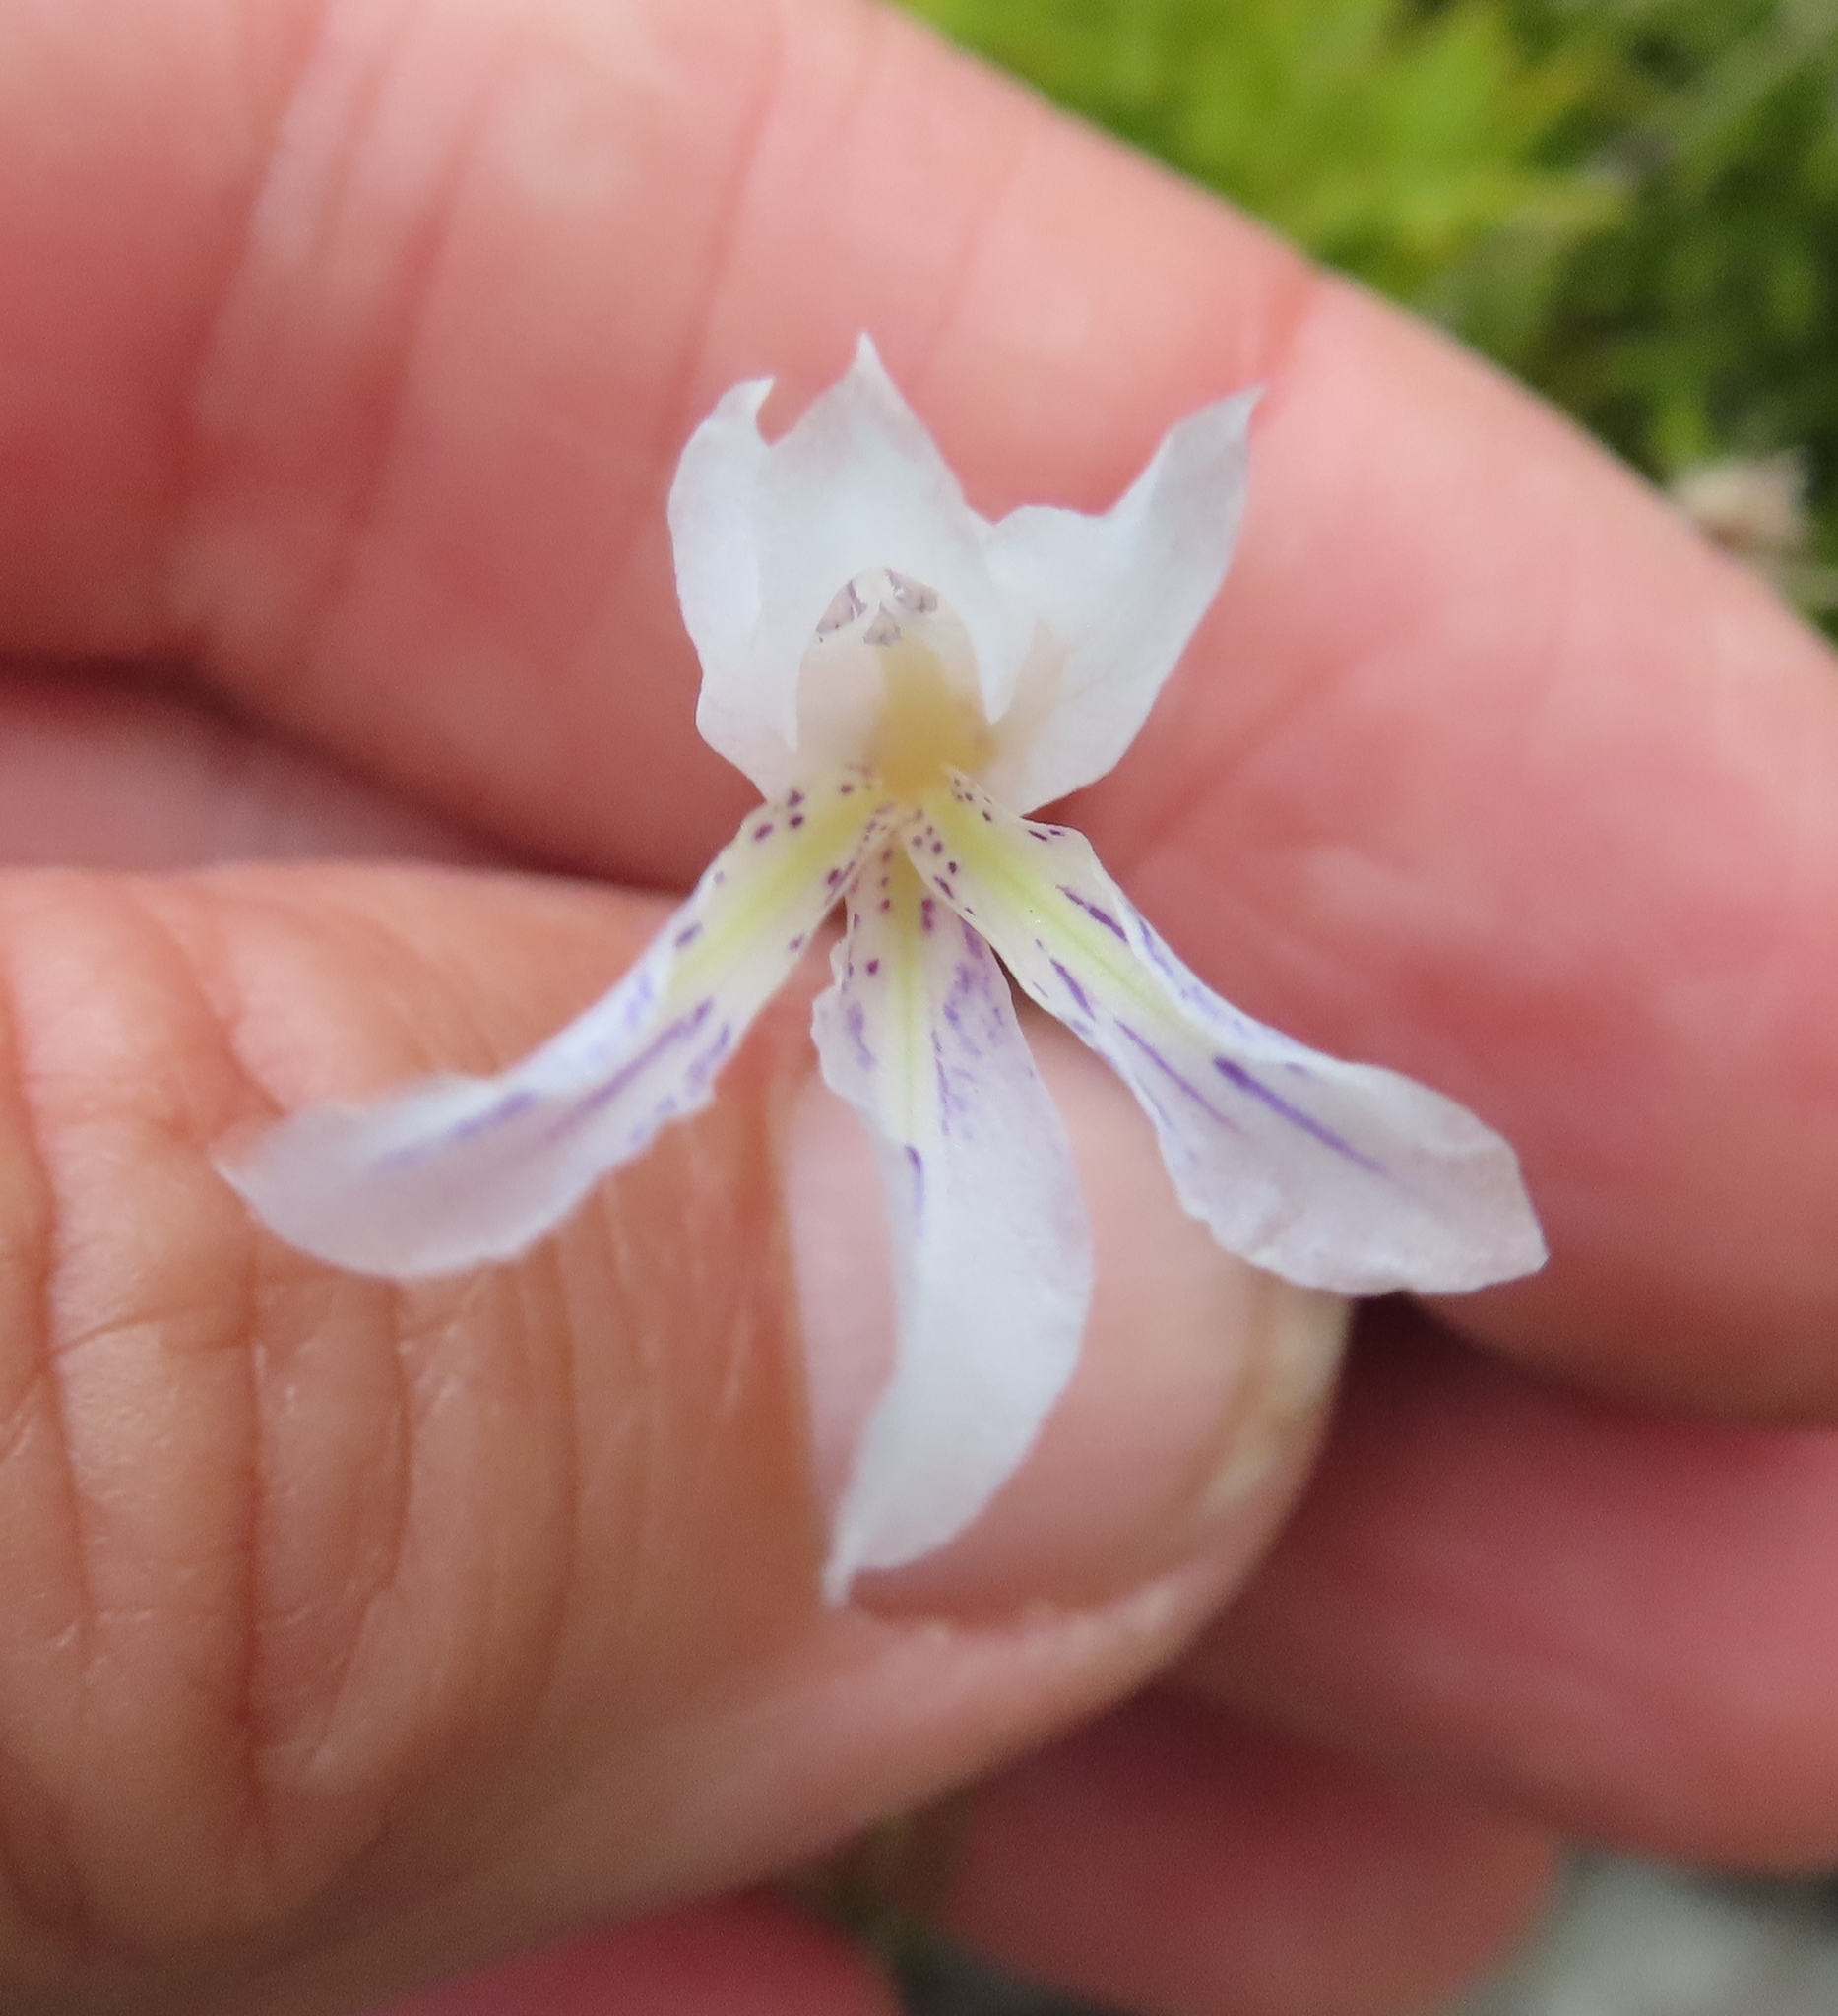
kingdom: Plantae
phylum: Tracheophyta
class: Liliopsida
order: Asparagales
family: Iridaceae
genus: Gladiolus
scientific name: Gladiolus vaginatus
